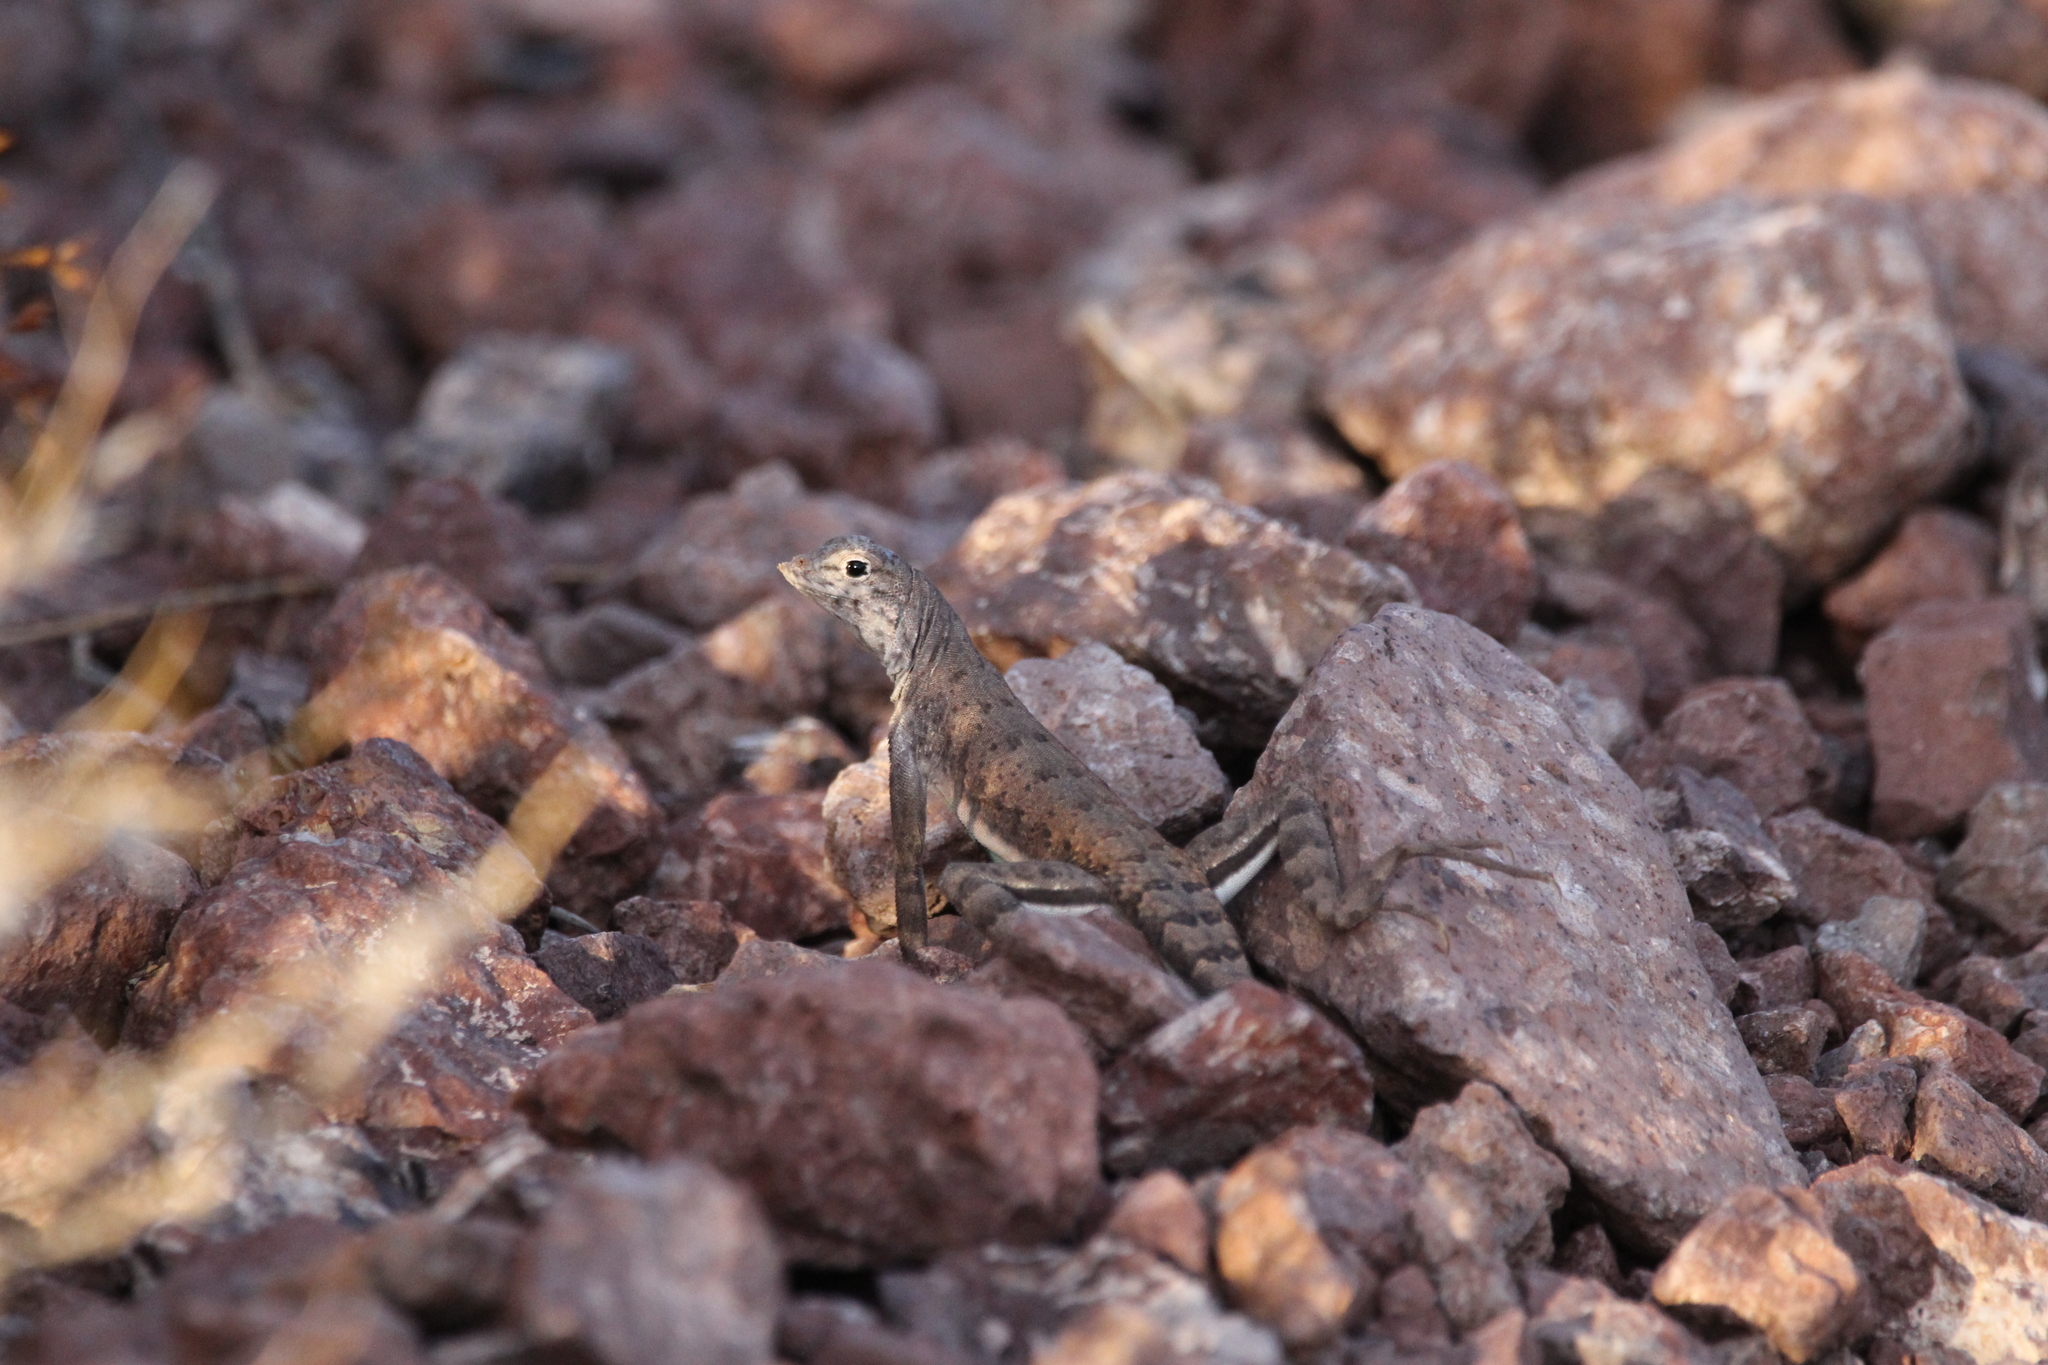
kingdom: Animalia
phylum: Chordata
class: Squamata
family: Phrynosomatidae
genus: Callisaurus
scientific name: Callisaurus draconoides
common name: Zebra-tailed lizard
